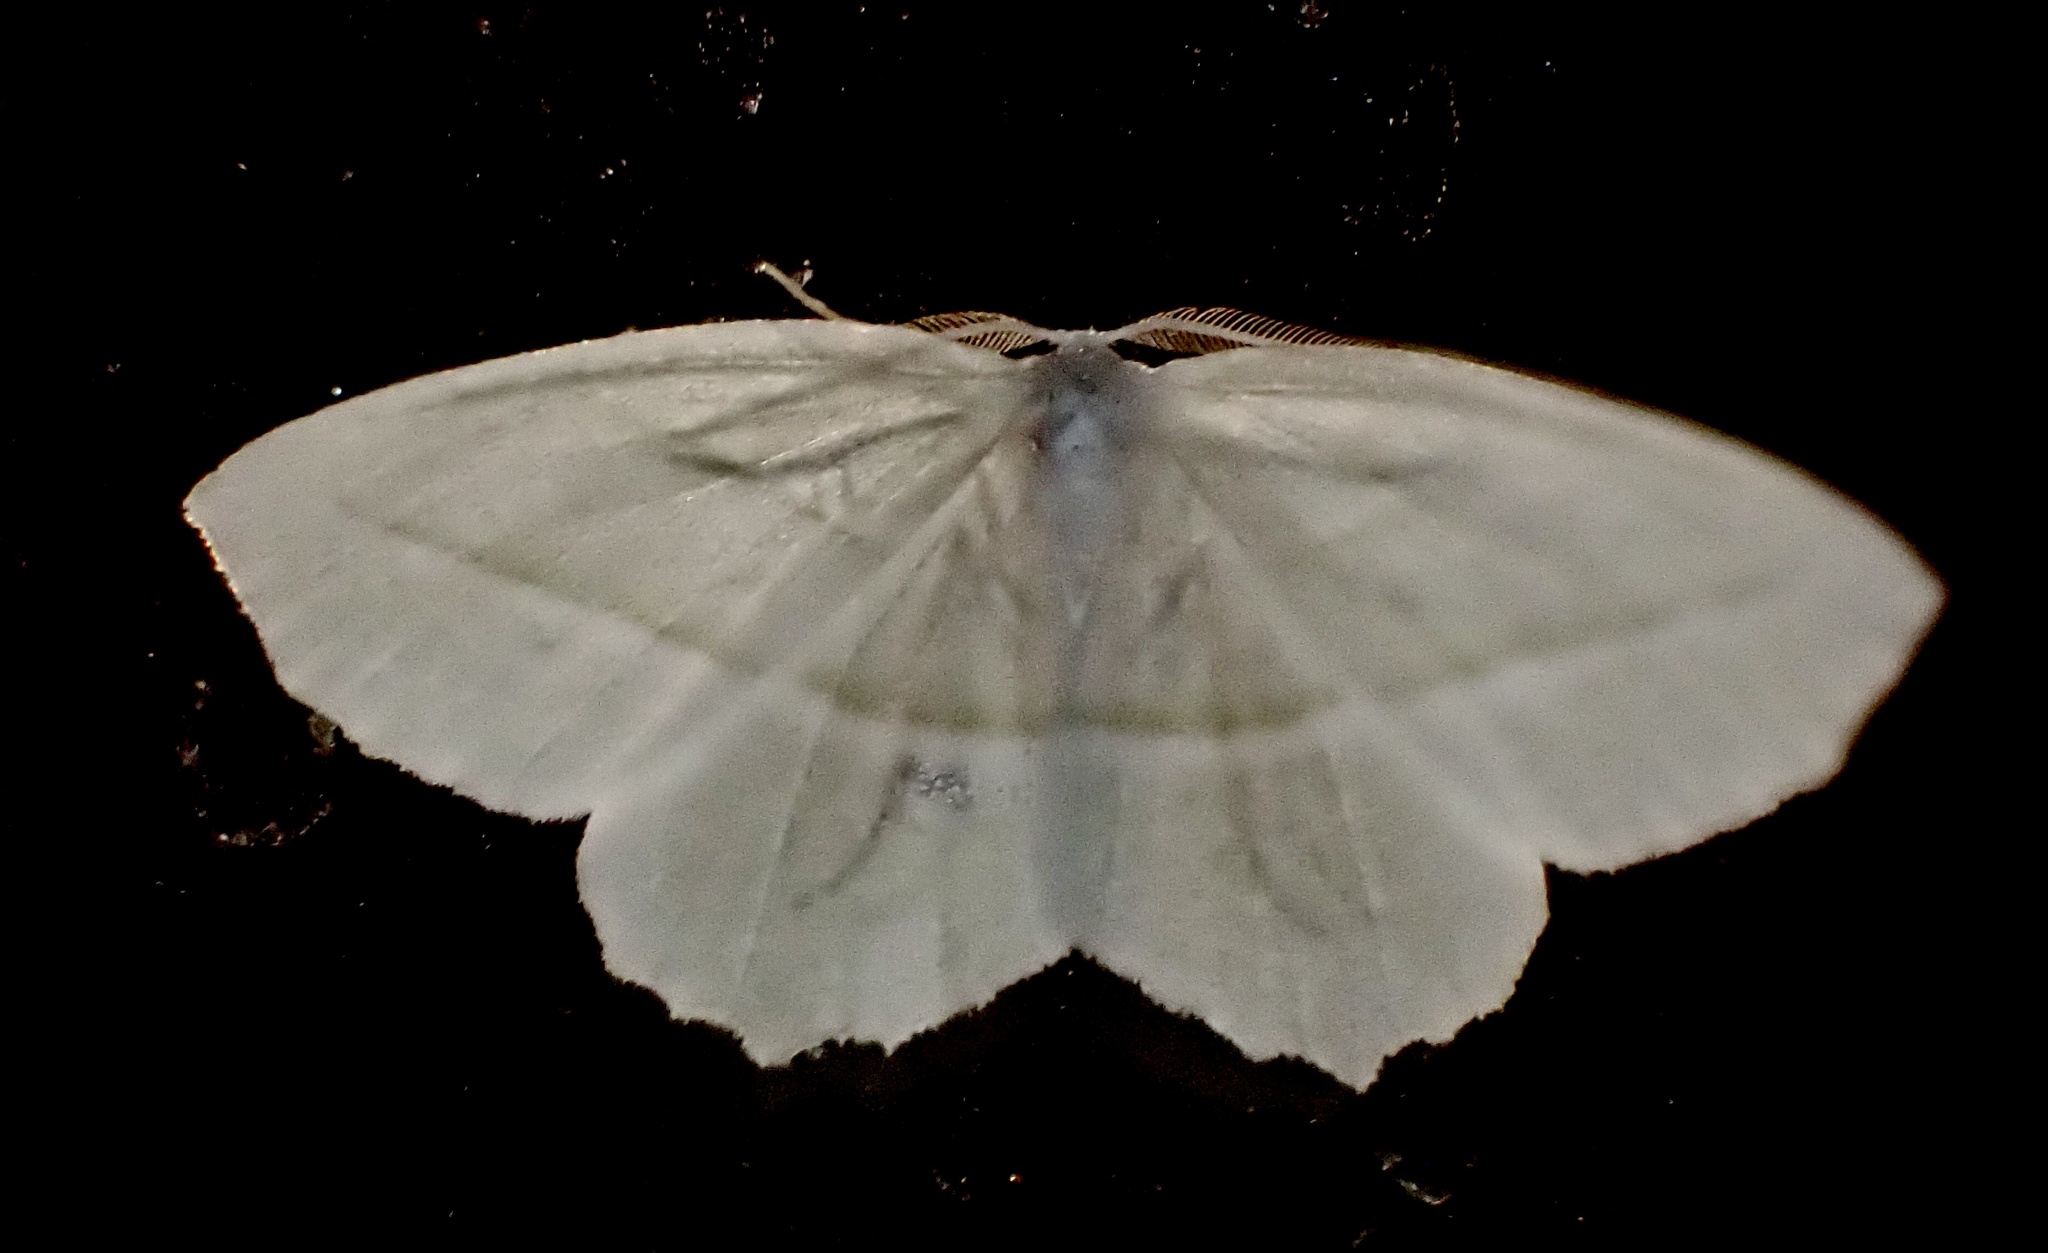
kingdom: Animalia
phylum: Arthropoda
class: Insecta
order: Lepidoptera
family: Geometridae
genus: Campaea
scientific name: Campaea perlata
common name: Fringed looper
